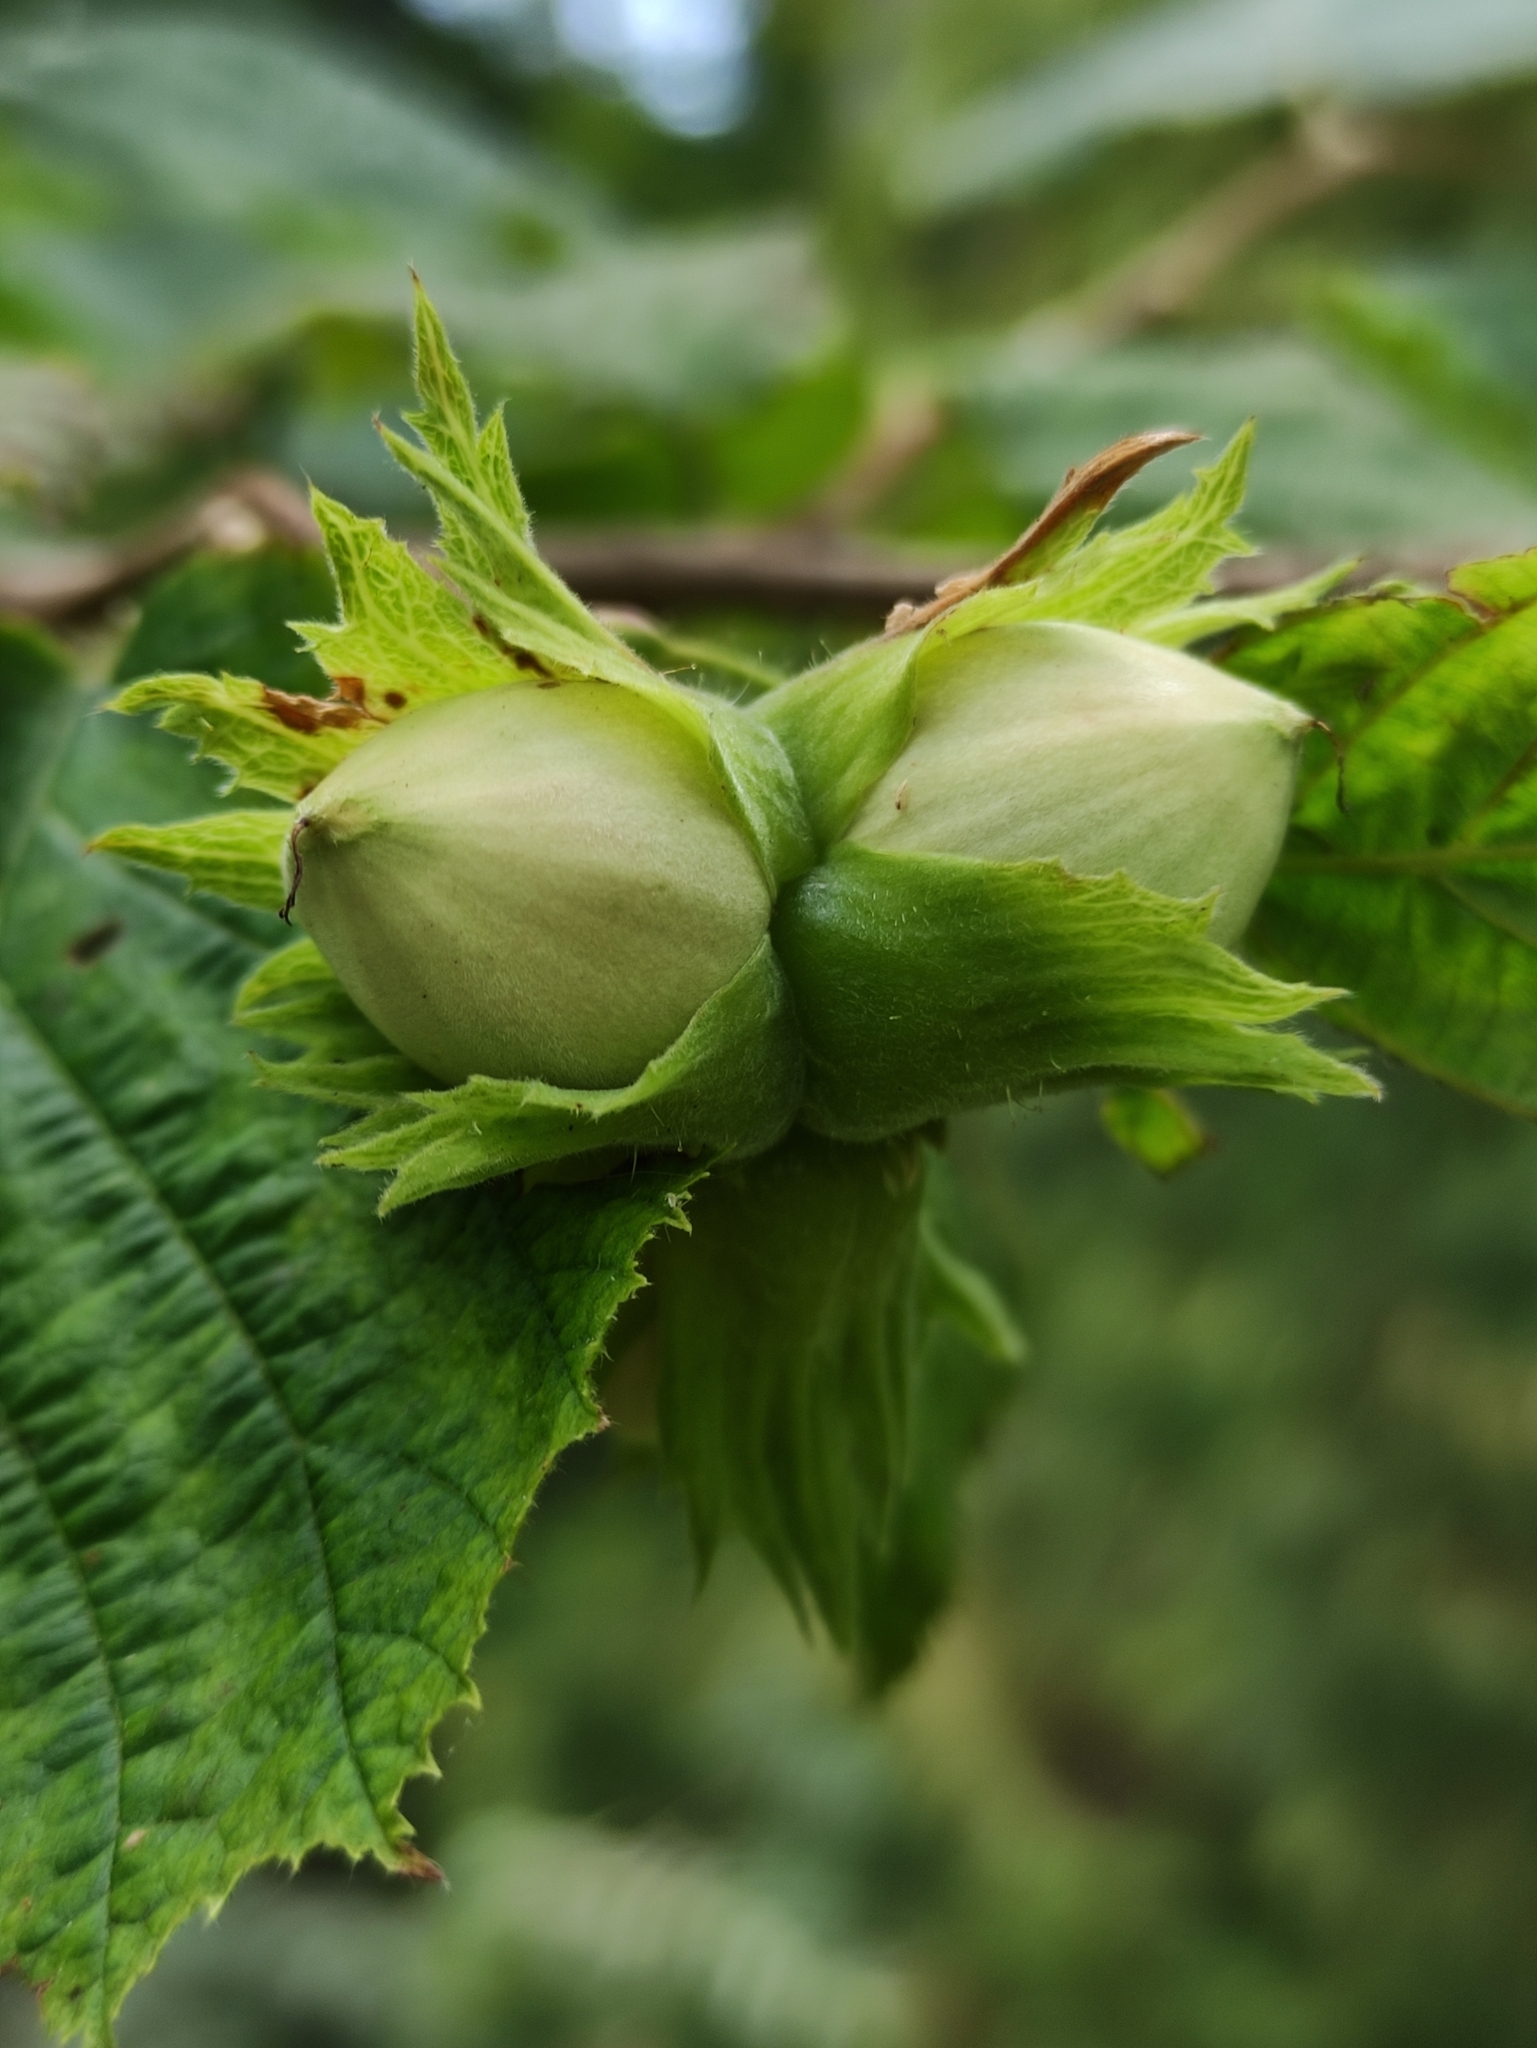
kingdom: Plantae
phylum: Tracheophyta
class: Magnoliopsida
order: Fagales
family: Betulaceae
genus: Corylus
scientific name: Corylus avellana
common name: European hazel
